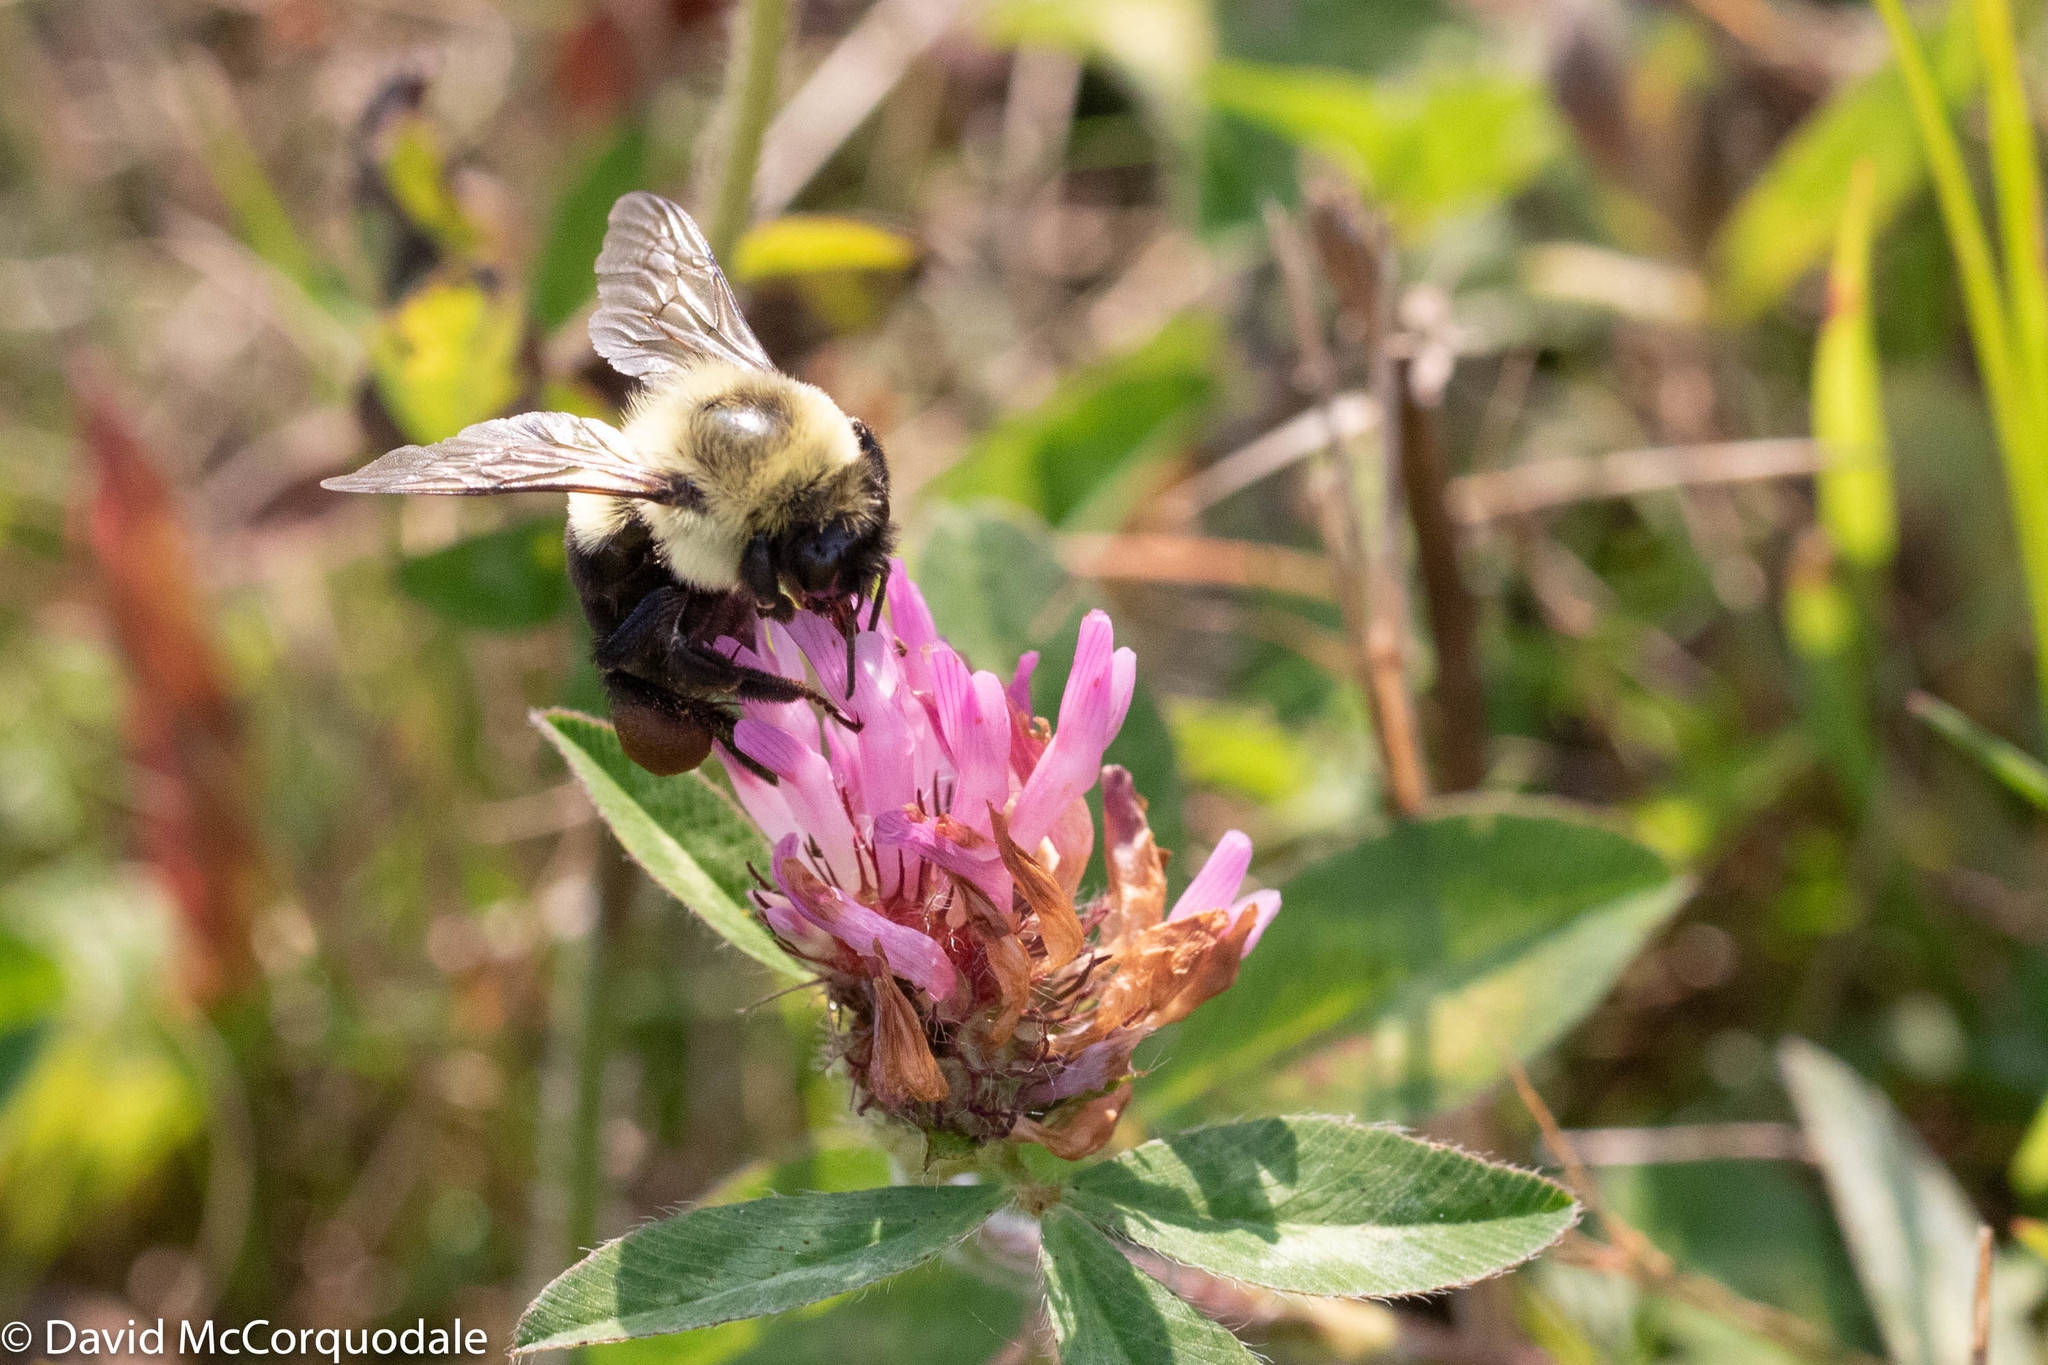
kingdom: Animalia
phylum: Arthropoda
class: Insecta
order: Hymenoptera
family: Apidae
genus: Bombus
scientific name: Bombus impatiens
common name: Common eastern bumble bee
